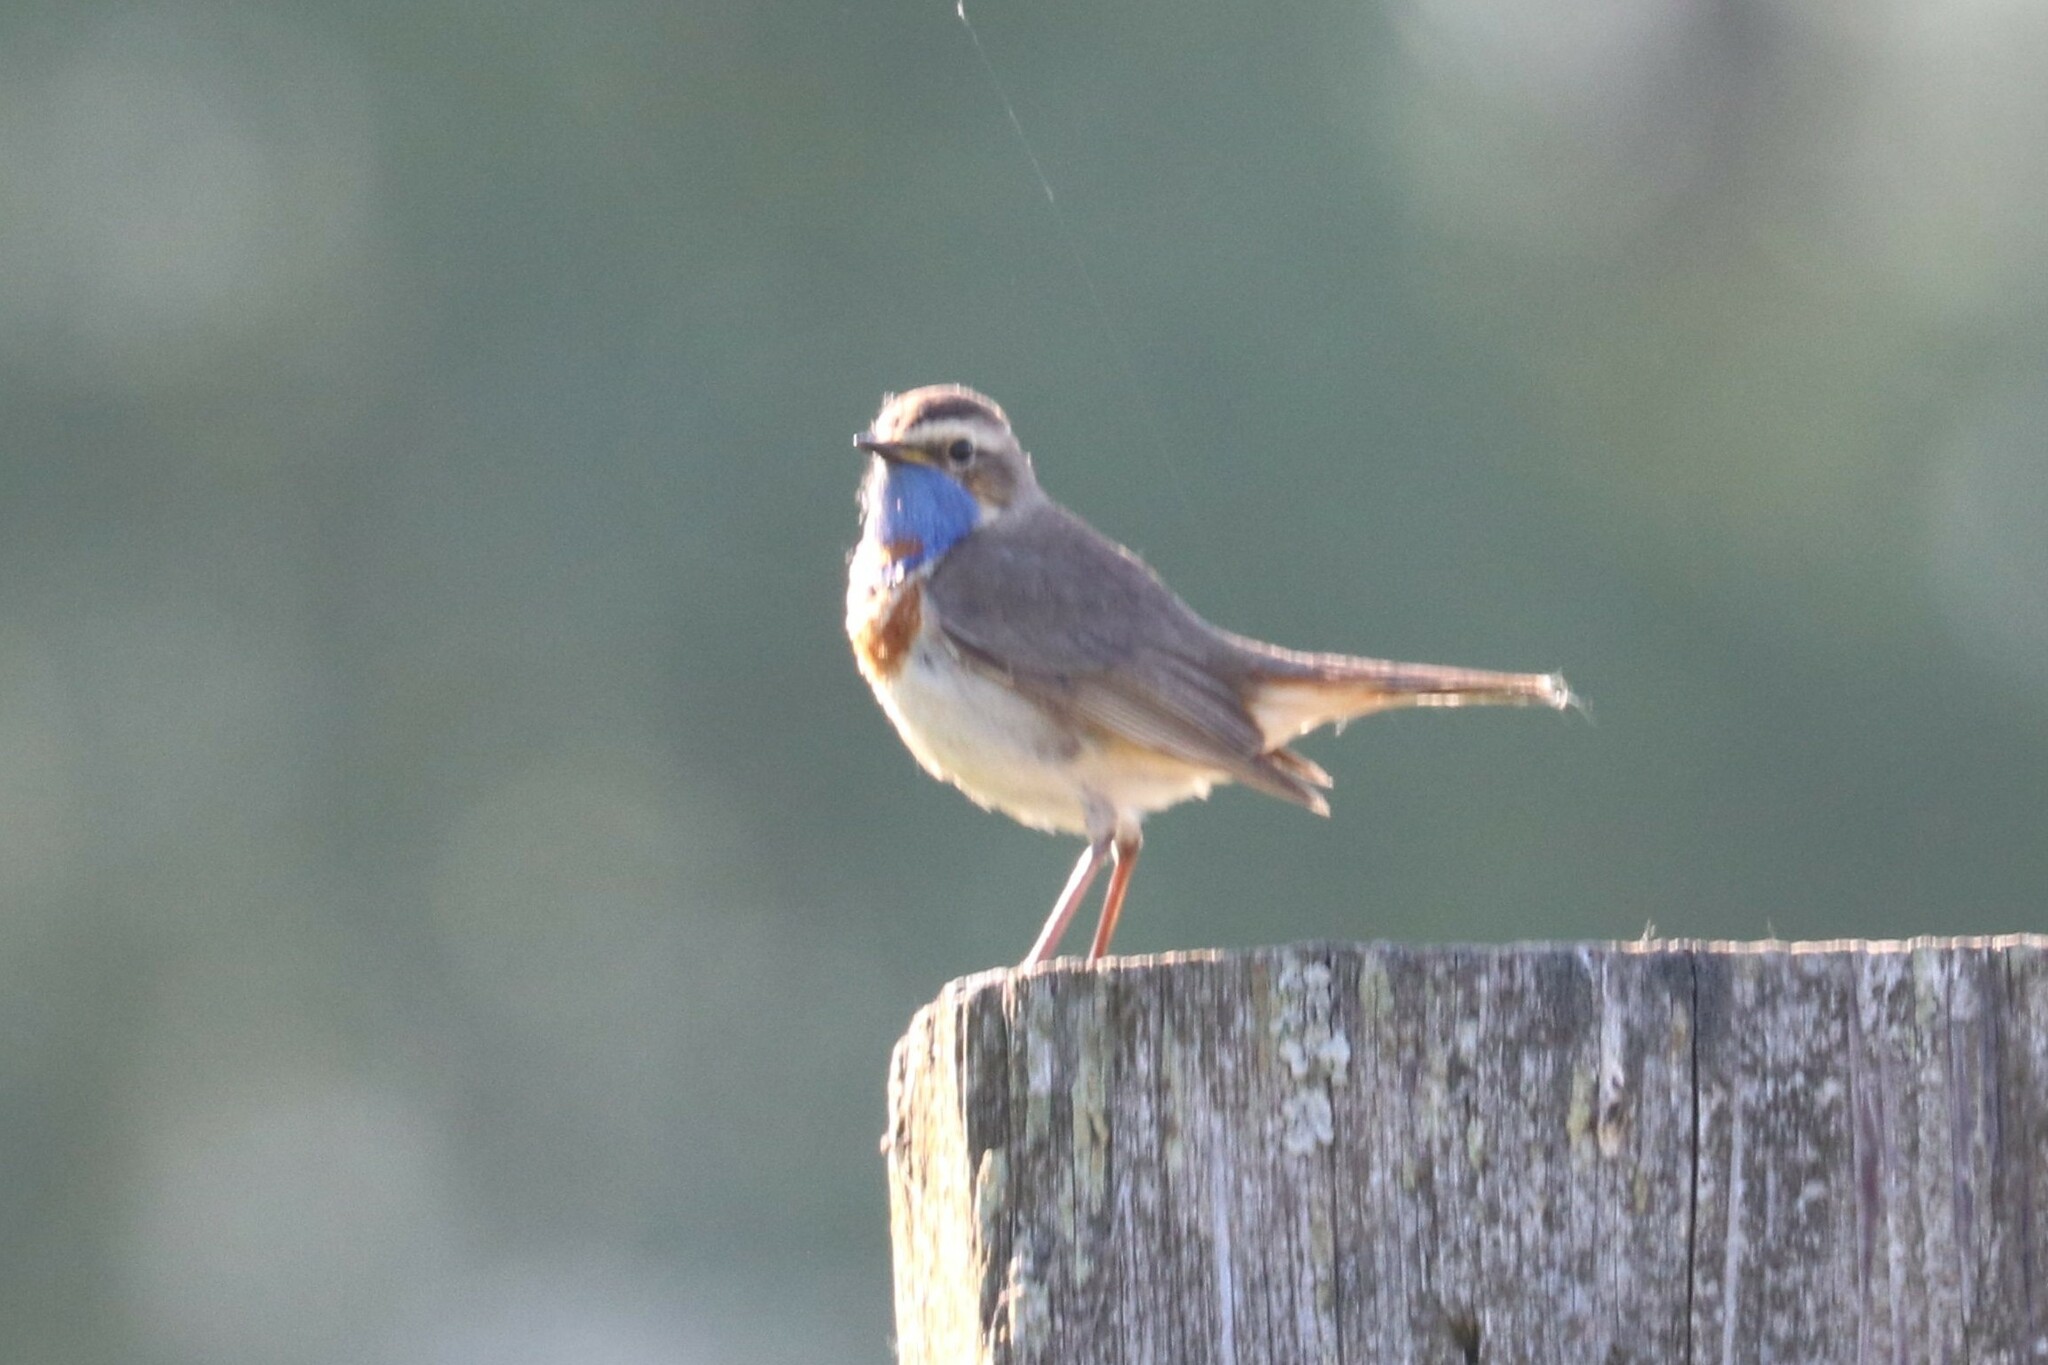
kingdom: Animalia
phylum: Chordata
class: Aves
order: Passeriformes
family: Muscicapidae
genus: Luscinia
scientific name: Luscinia svecica
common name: Bluethroat
